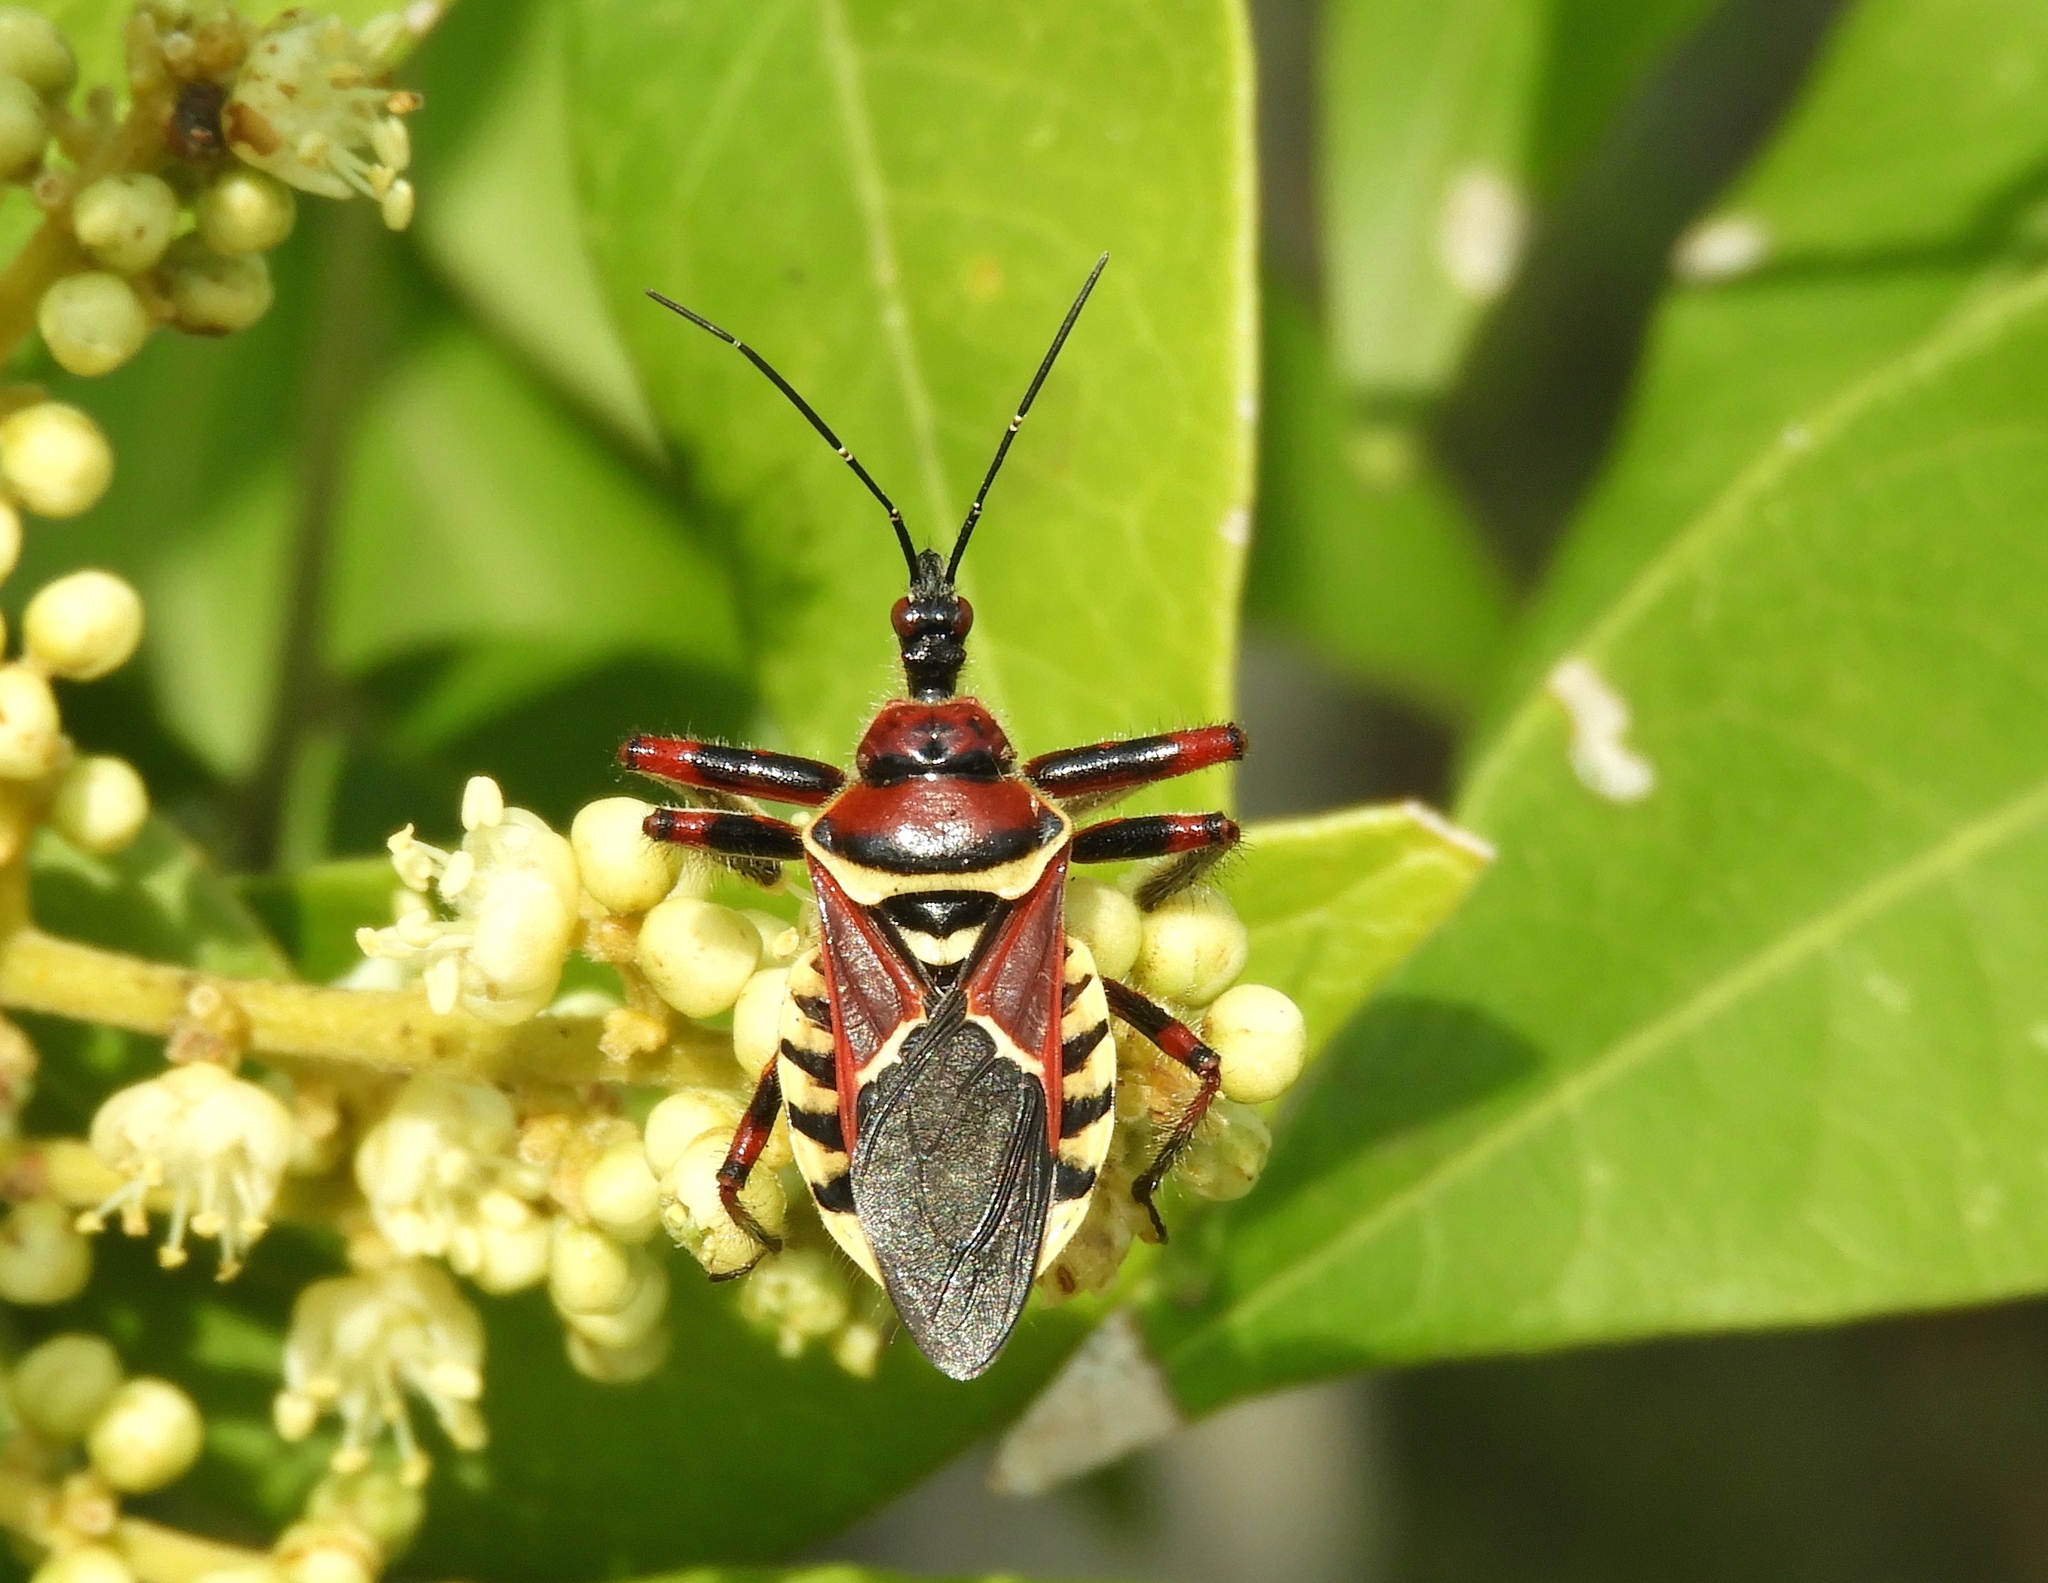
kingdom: Animalia
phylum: Arthropoda
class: Insecta
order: Hemiptera
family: Reduviidae
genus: Apiomerus
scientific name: Apiomerus
